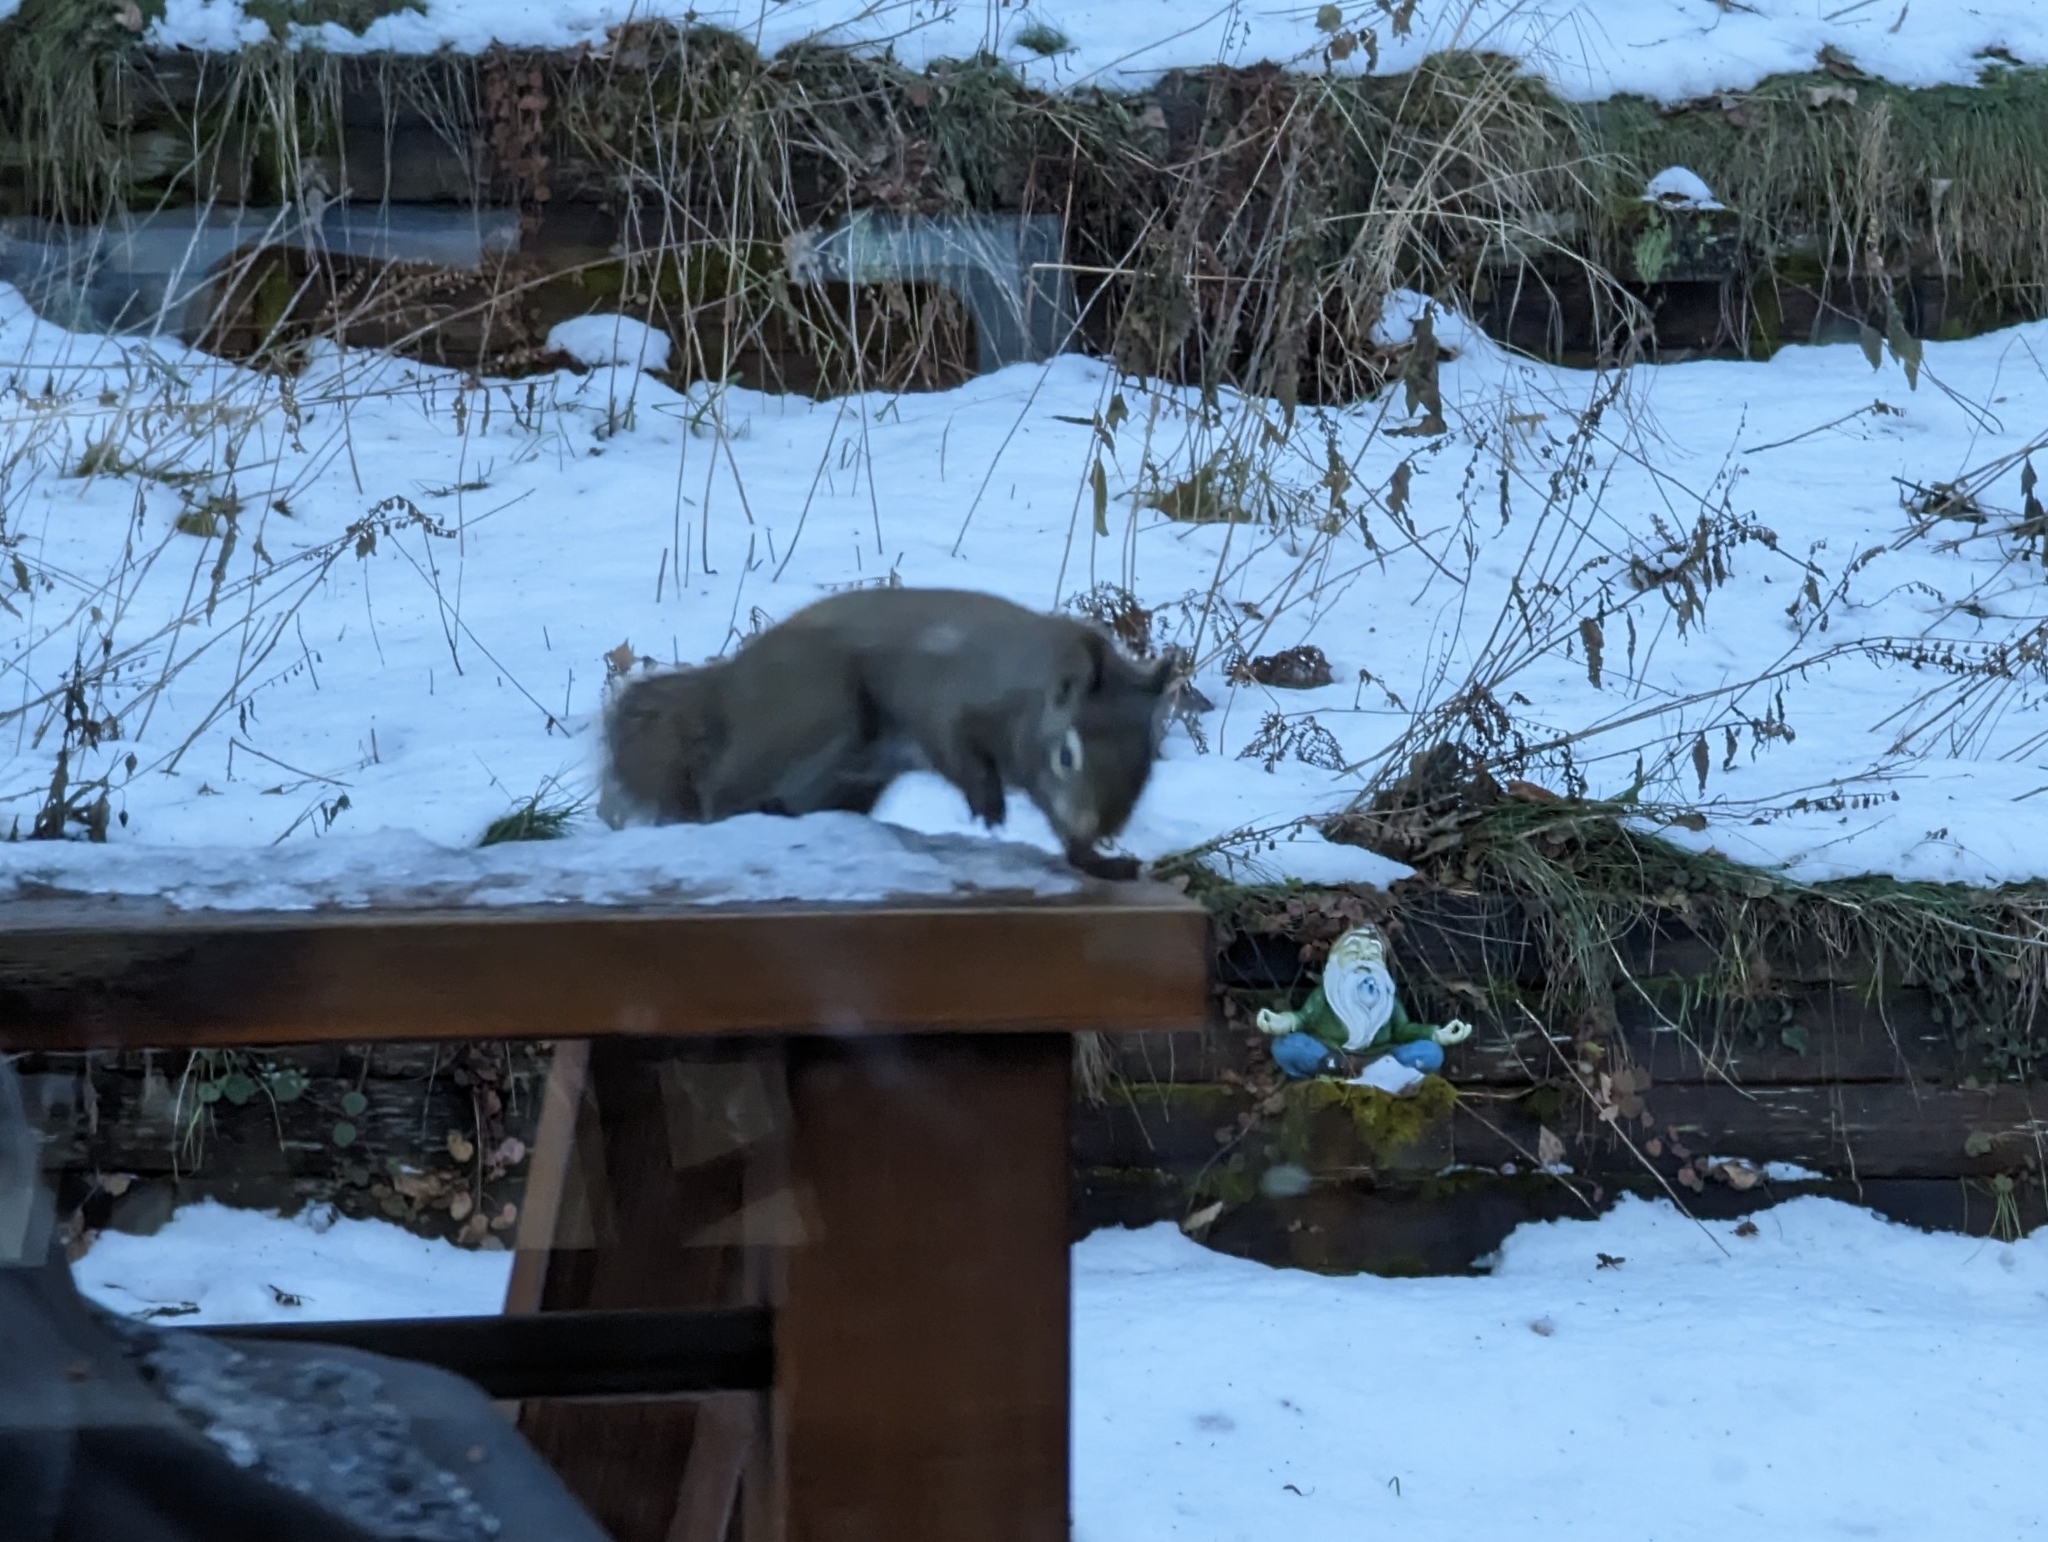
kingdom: Animalia
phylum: Chordata
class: Mammalia
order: Rodentia
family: Sciuridae
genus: Tamiasciurus
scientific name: Tamiasciurus hudsonicus
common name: Red squirrel
